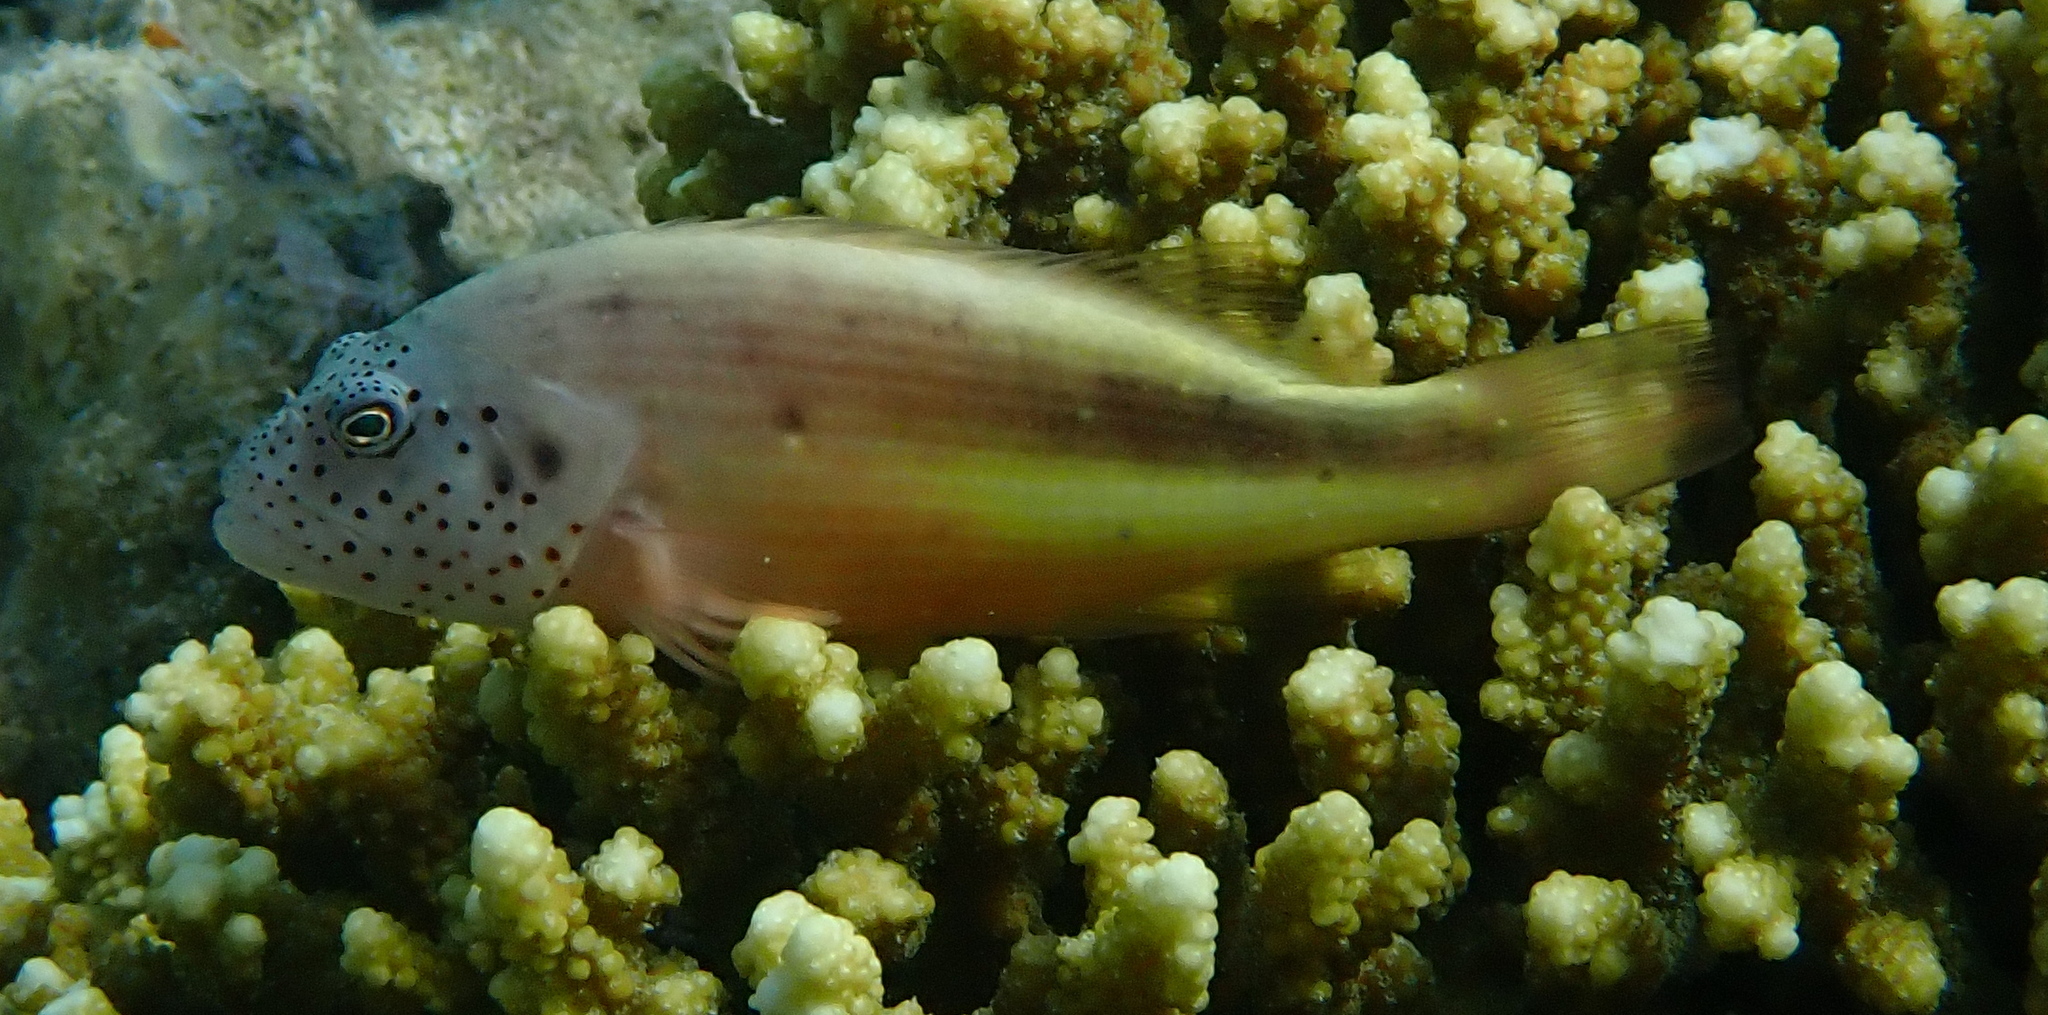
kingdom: Animalia
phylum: Chordata
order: Perciformes
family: Cirrhitidae
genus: Paracirrhites
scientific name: Paracirrhites forsteri
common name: Freckled hawkfish
